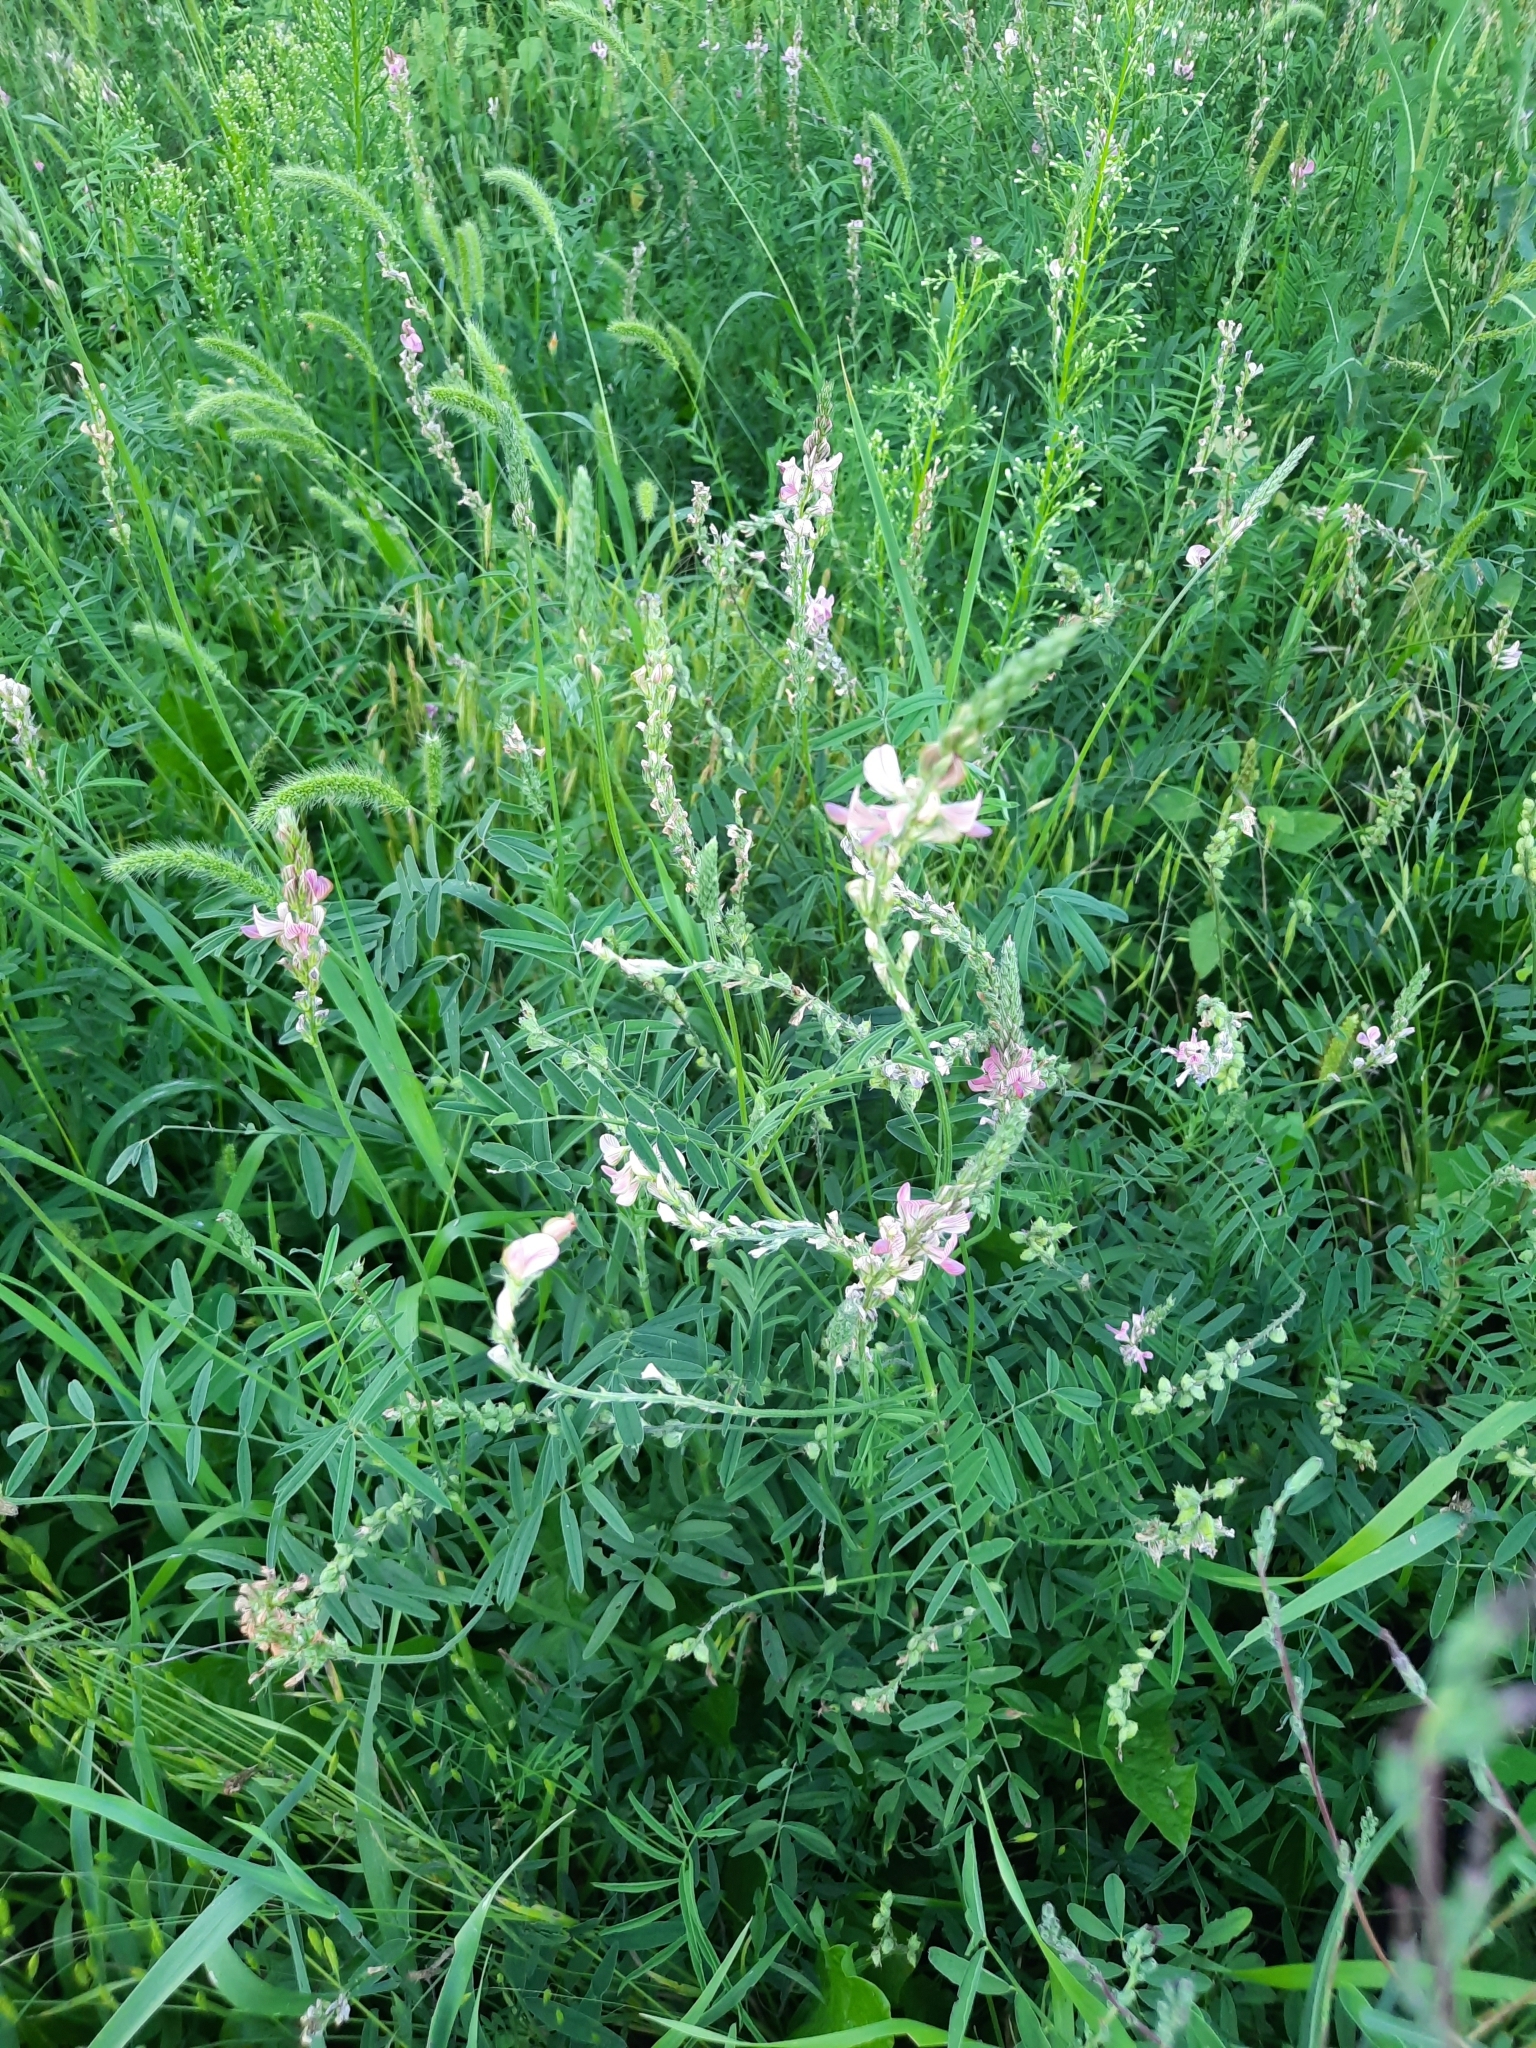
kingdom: Plantae
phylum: Tracheophyta
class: Magnoliopsida
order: Fabales
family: Fabaceae
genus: Onobrychis
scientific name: Onobrychis viciifolia
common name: Sainfoin
